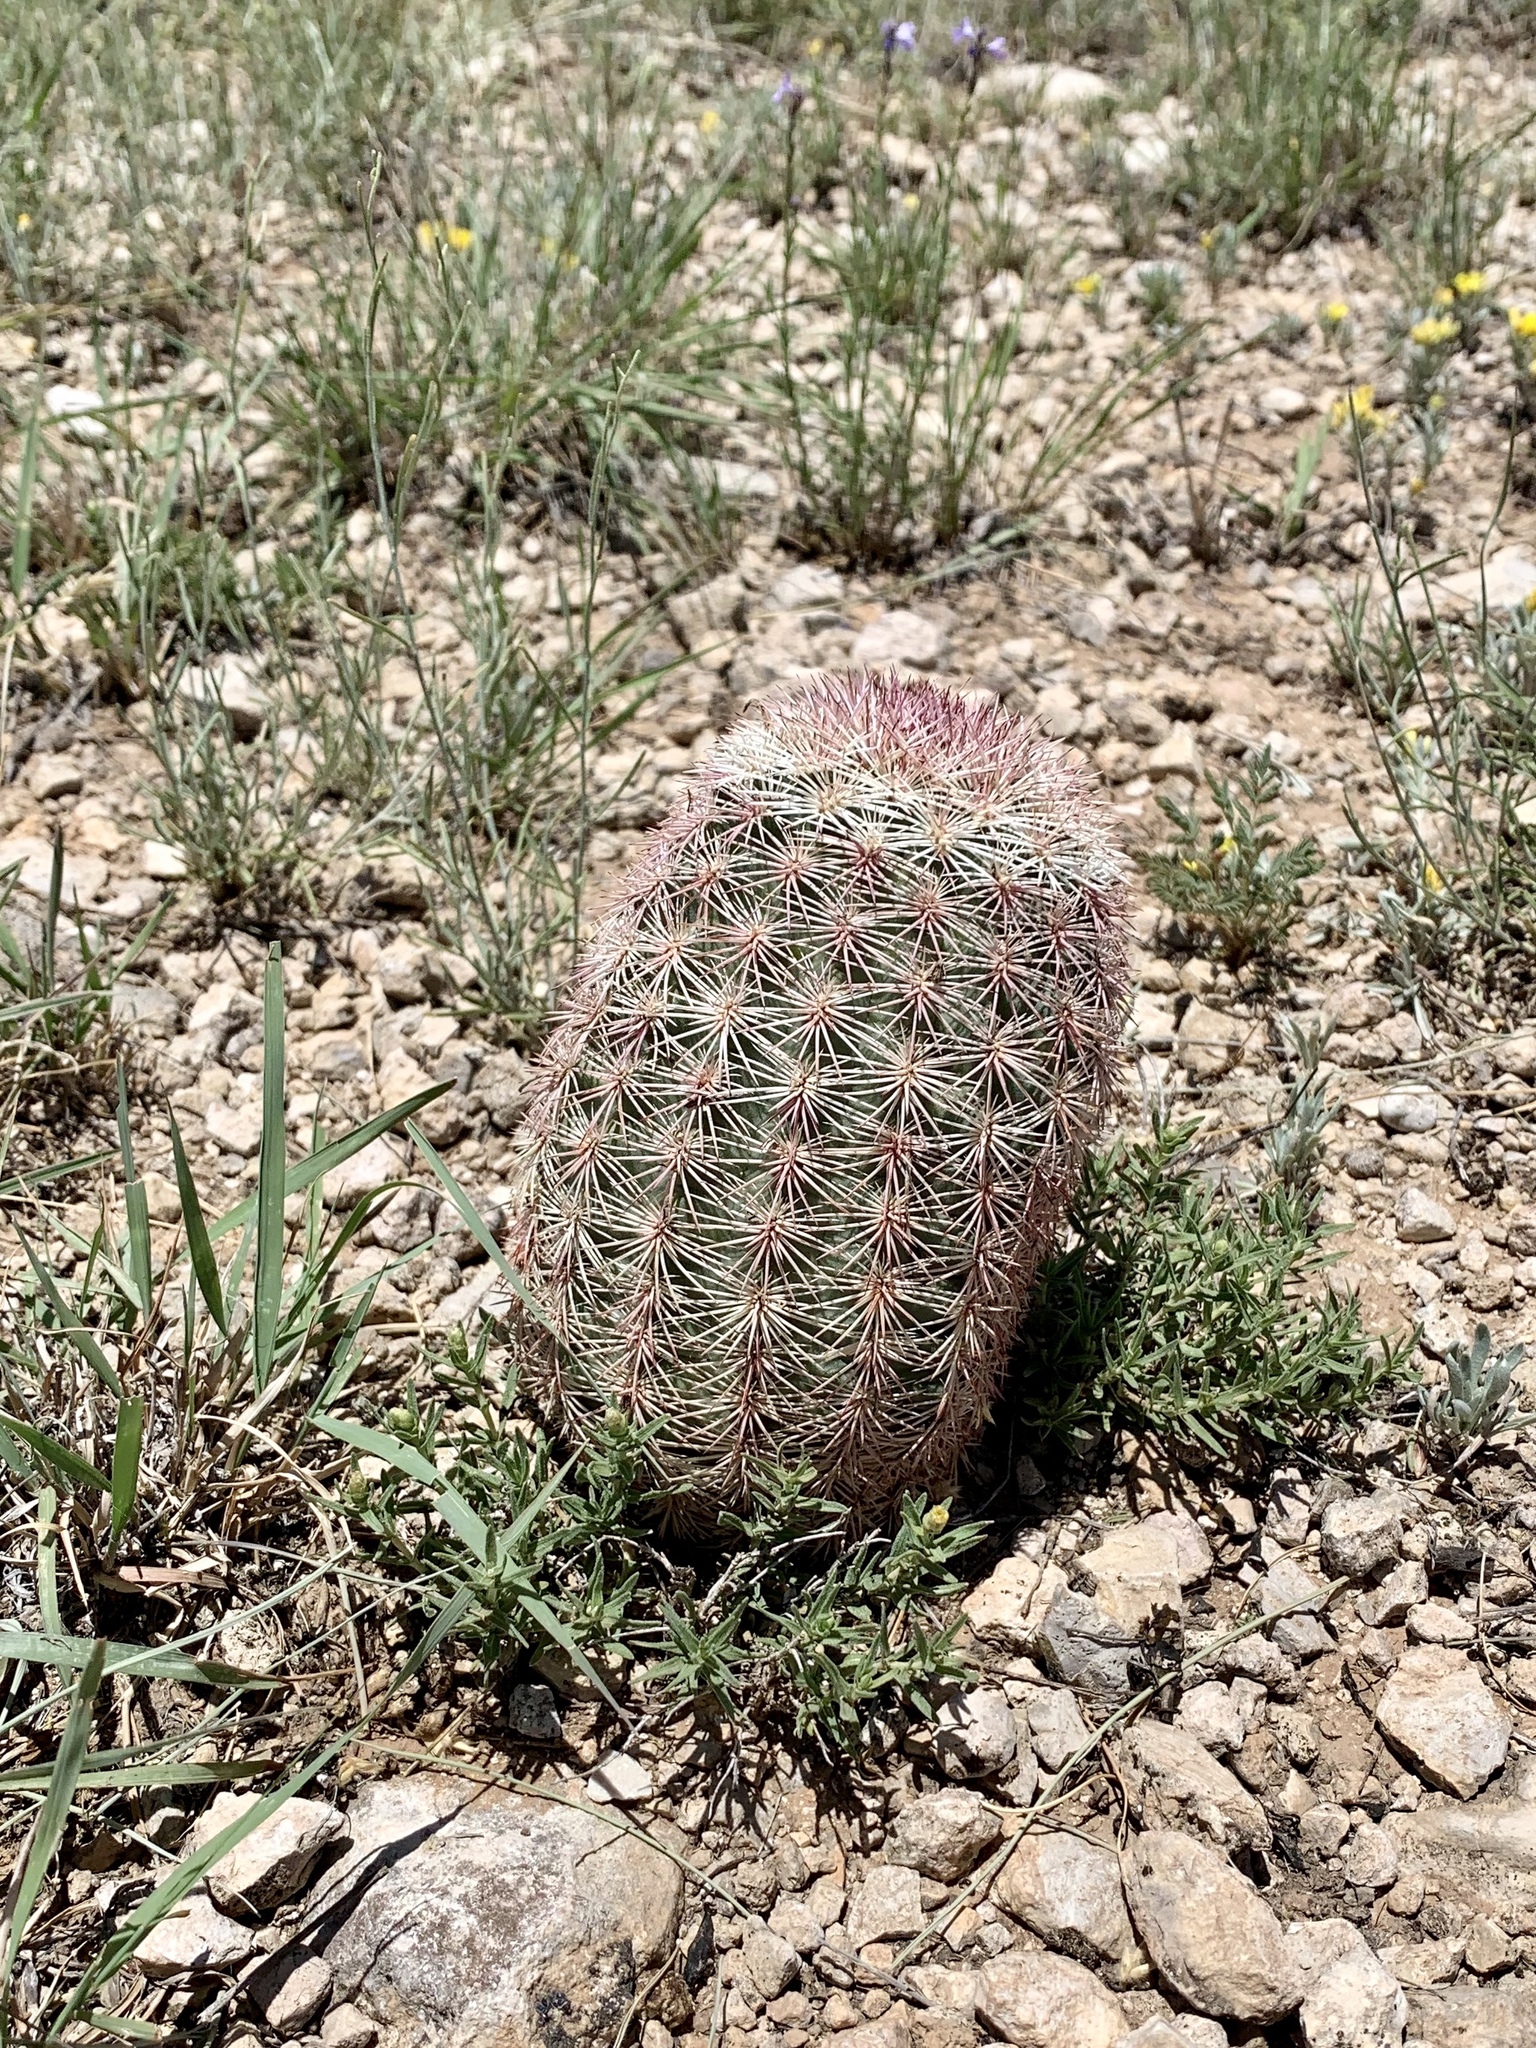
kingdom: Plantae
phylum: Tracheophyta
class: Magnoliopsida
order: Caryophyllales
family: Cactaceae
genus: Echinocereus
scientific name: Echinocereus dasyacanthus
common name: Spiny hedgehog cactus
